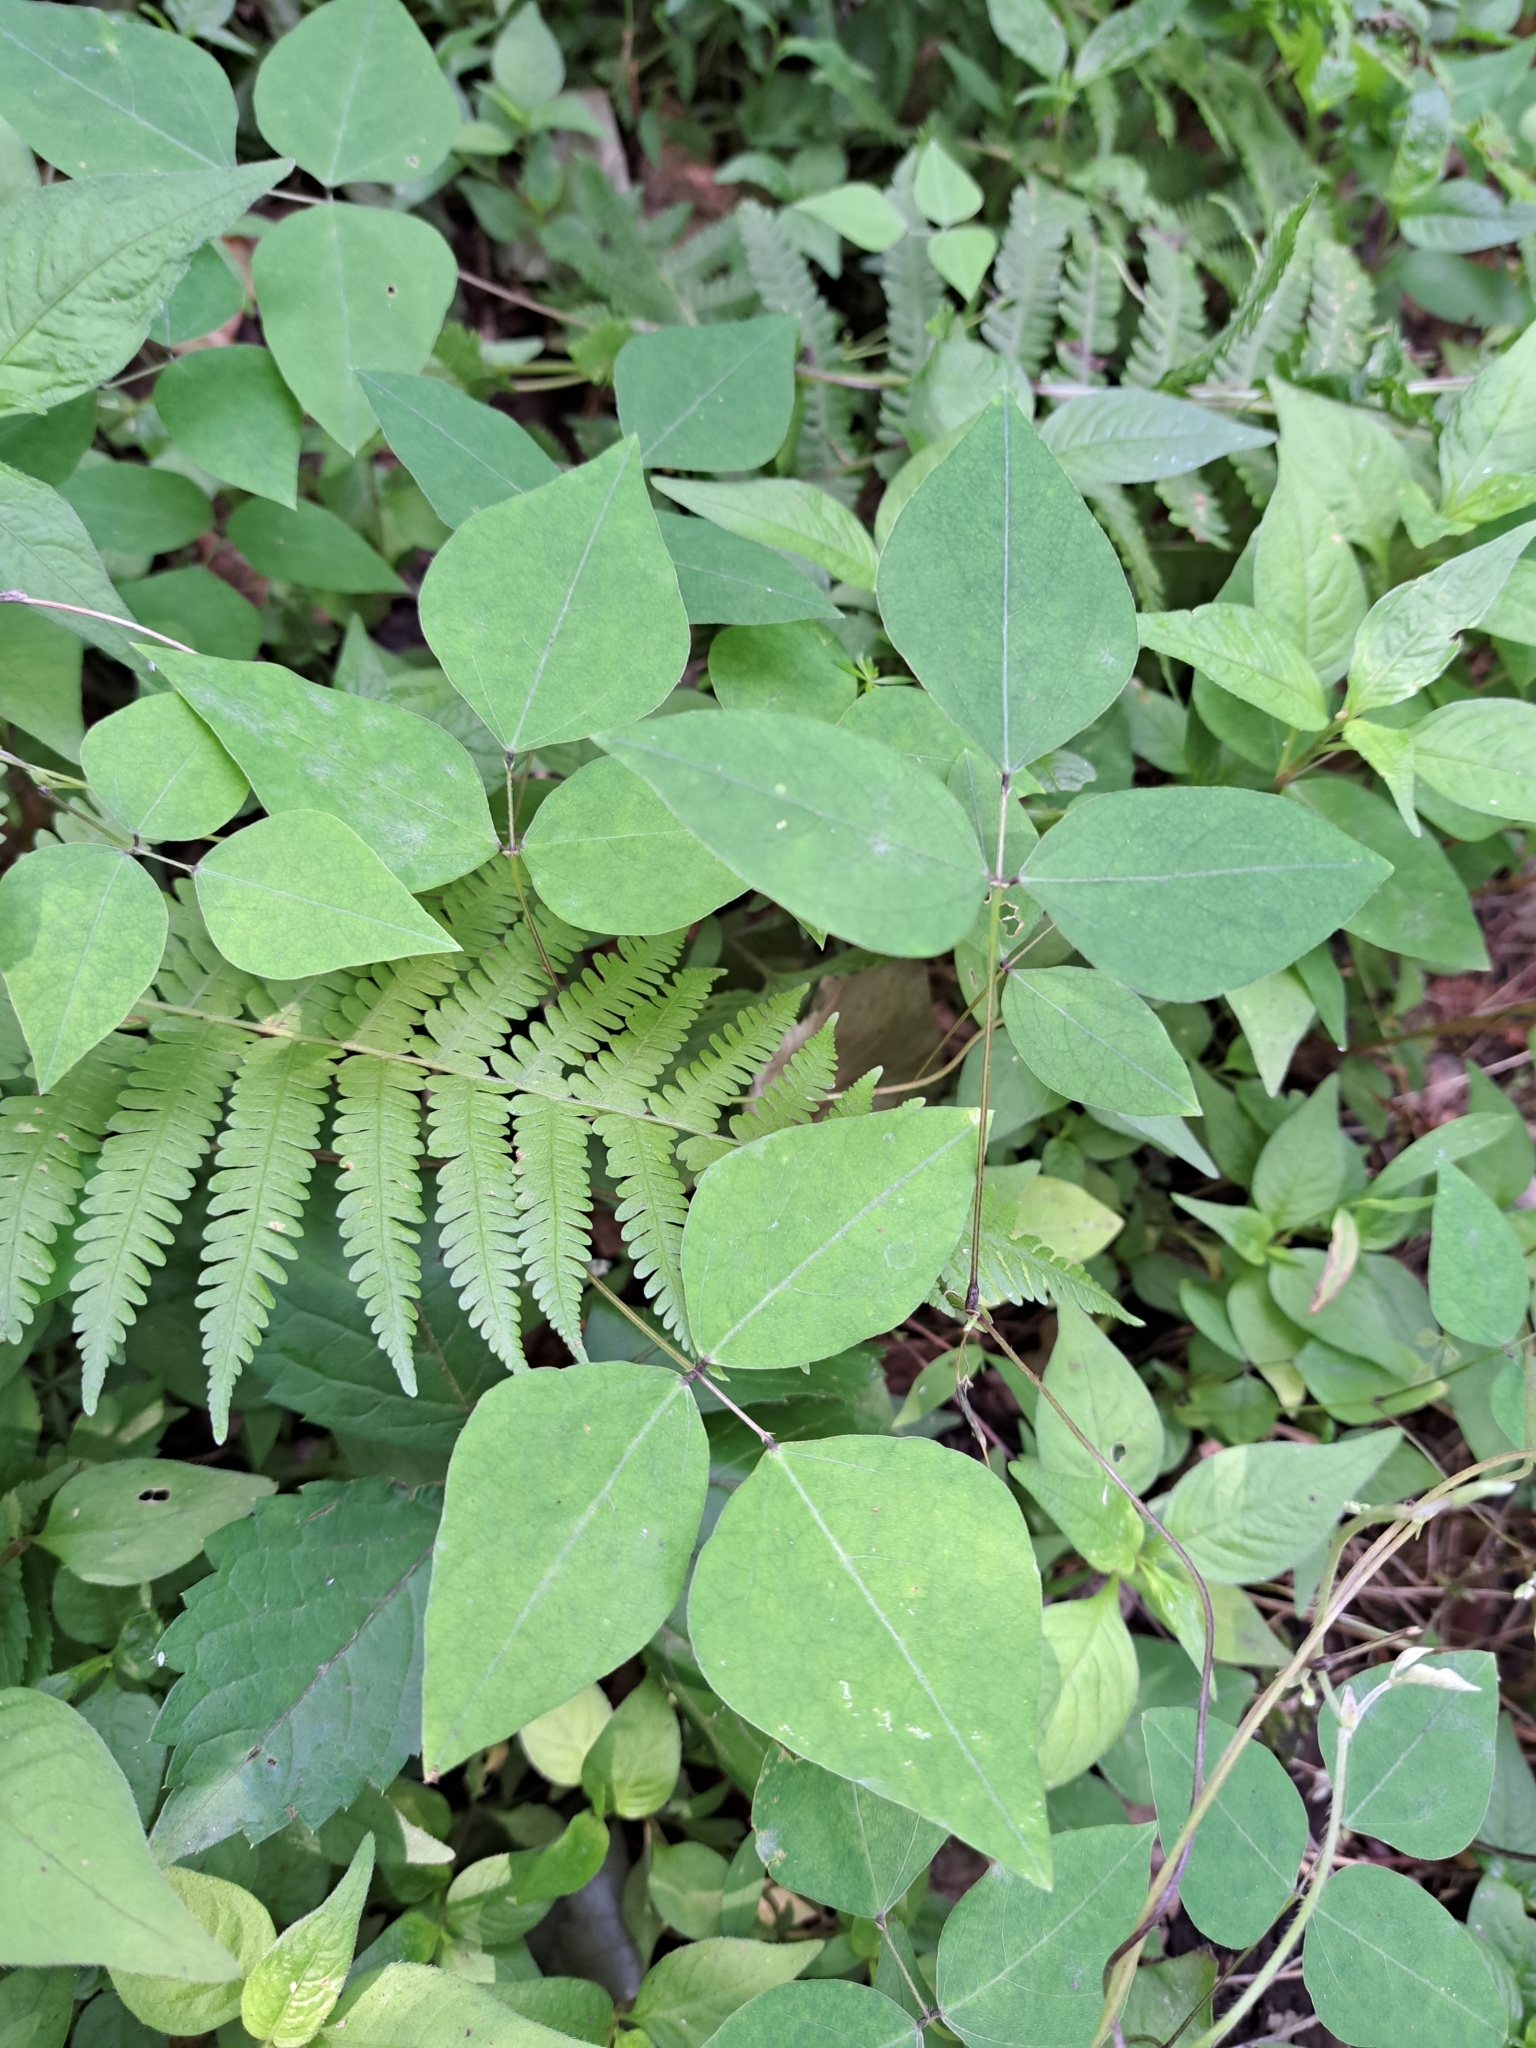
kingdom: Plantae
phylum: Tracheophyta
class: Magnoliopsida
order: Fabales
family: Fabaceae
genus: Amphicarpaea
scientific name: Amphicarpaea bracteata
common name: American hog peanut
